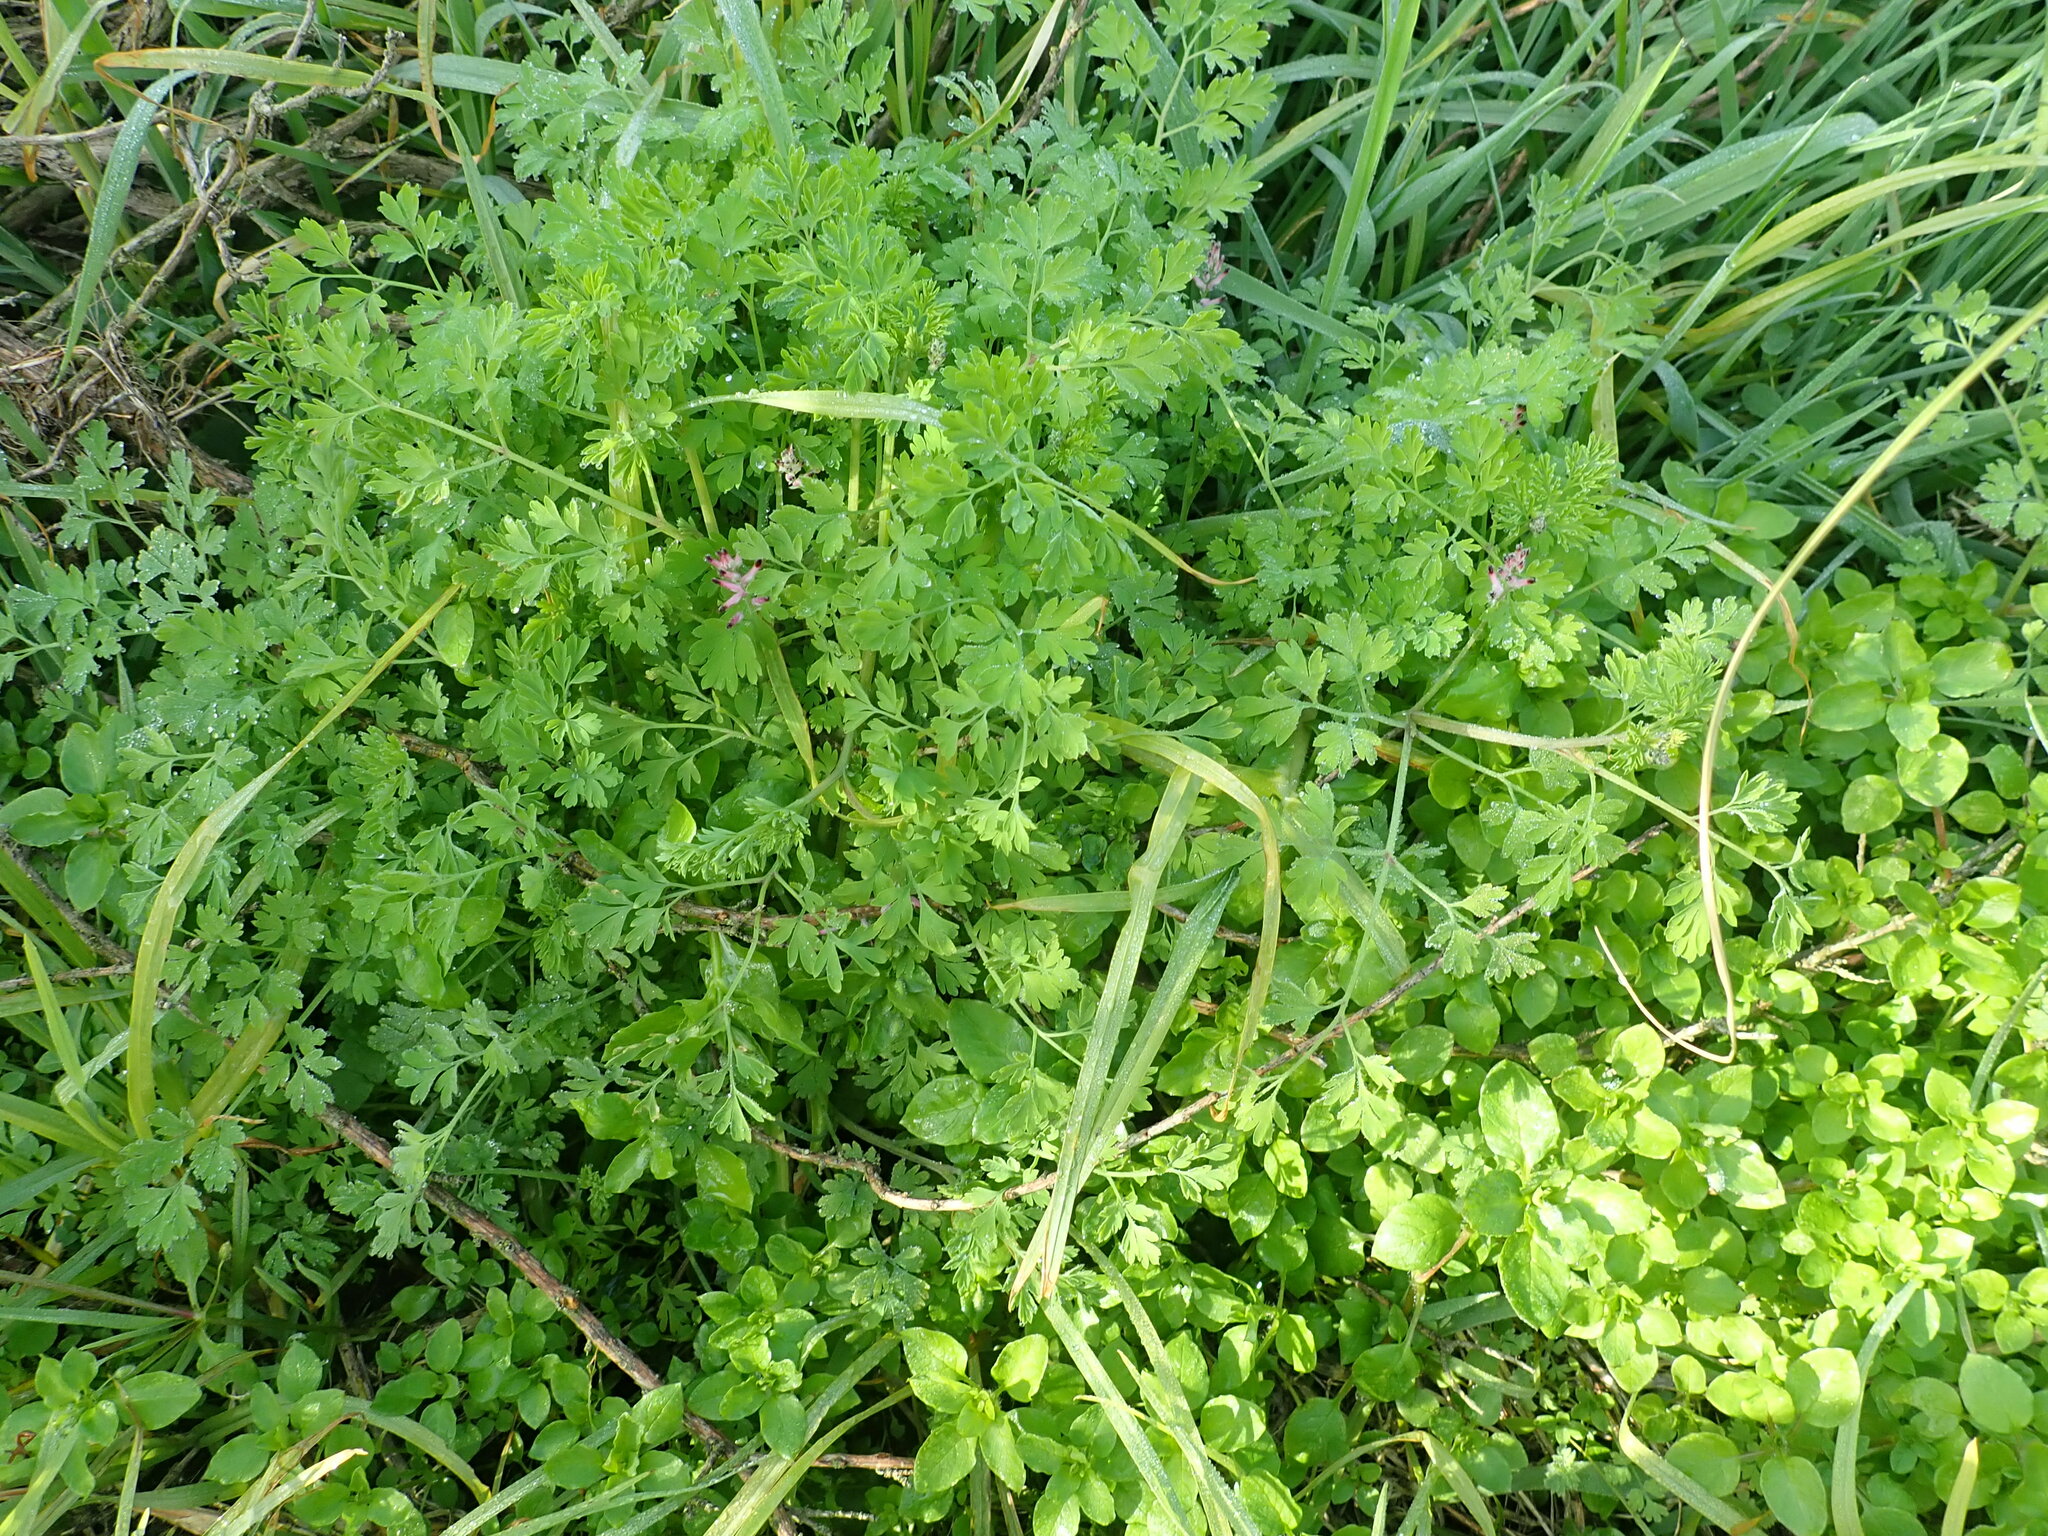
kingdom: Plantae
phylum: Tracheophyta
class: Magnoliopsida
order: Ranunculales
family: Papaveraceae
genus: Fumaria
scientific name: Fumaria muralis
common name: Common ramping-fumitory
